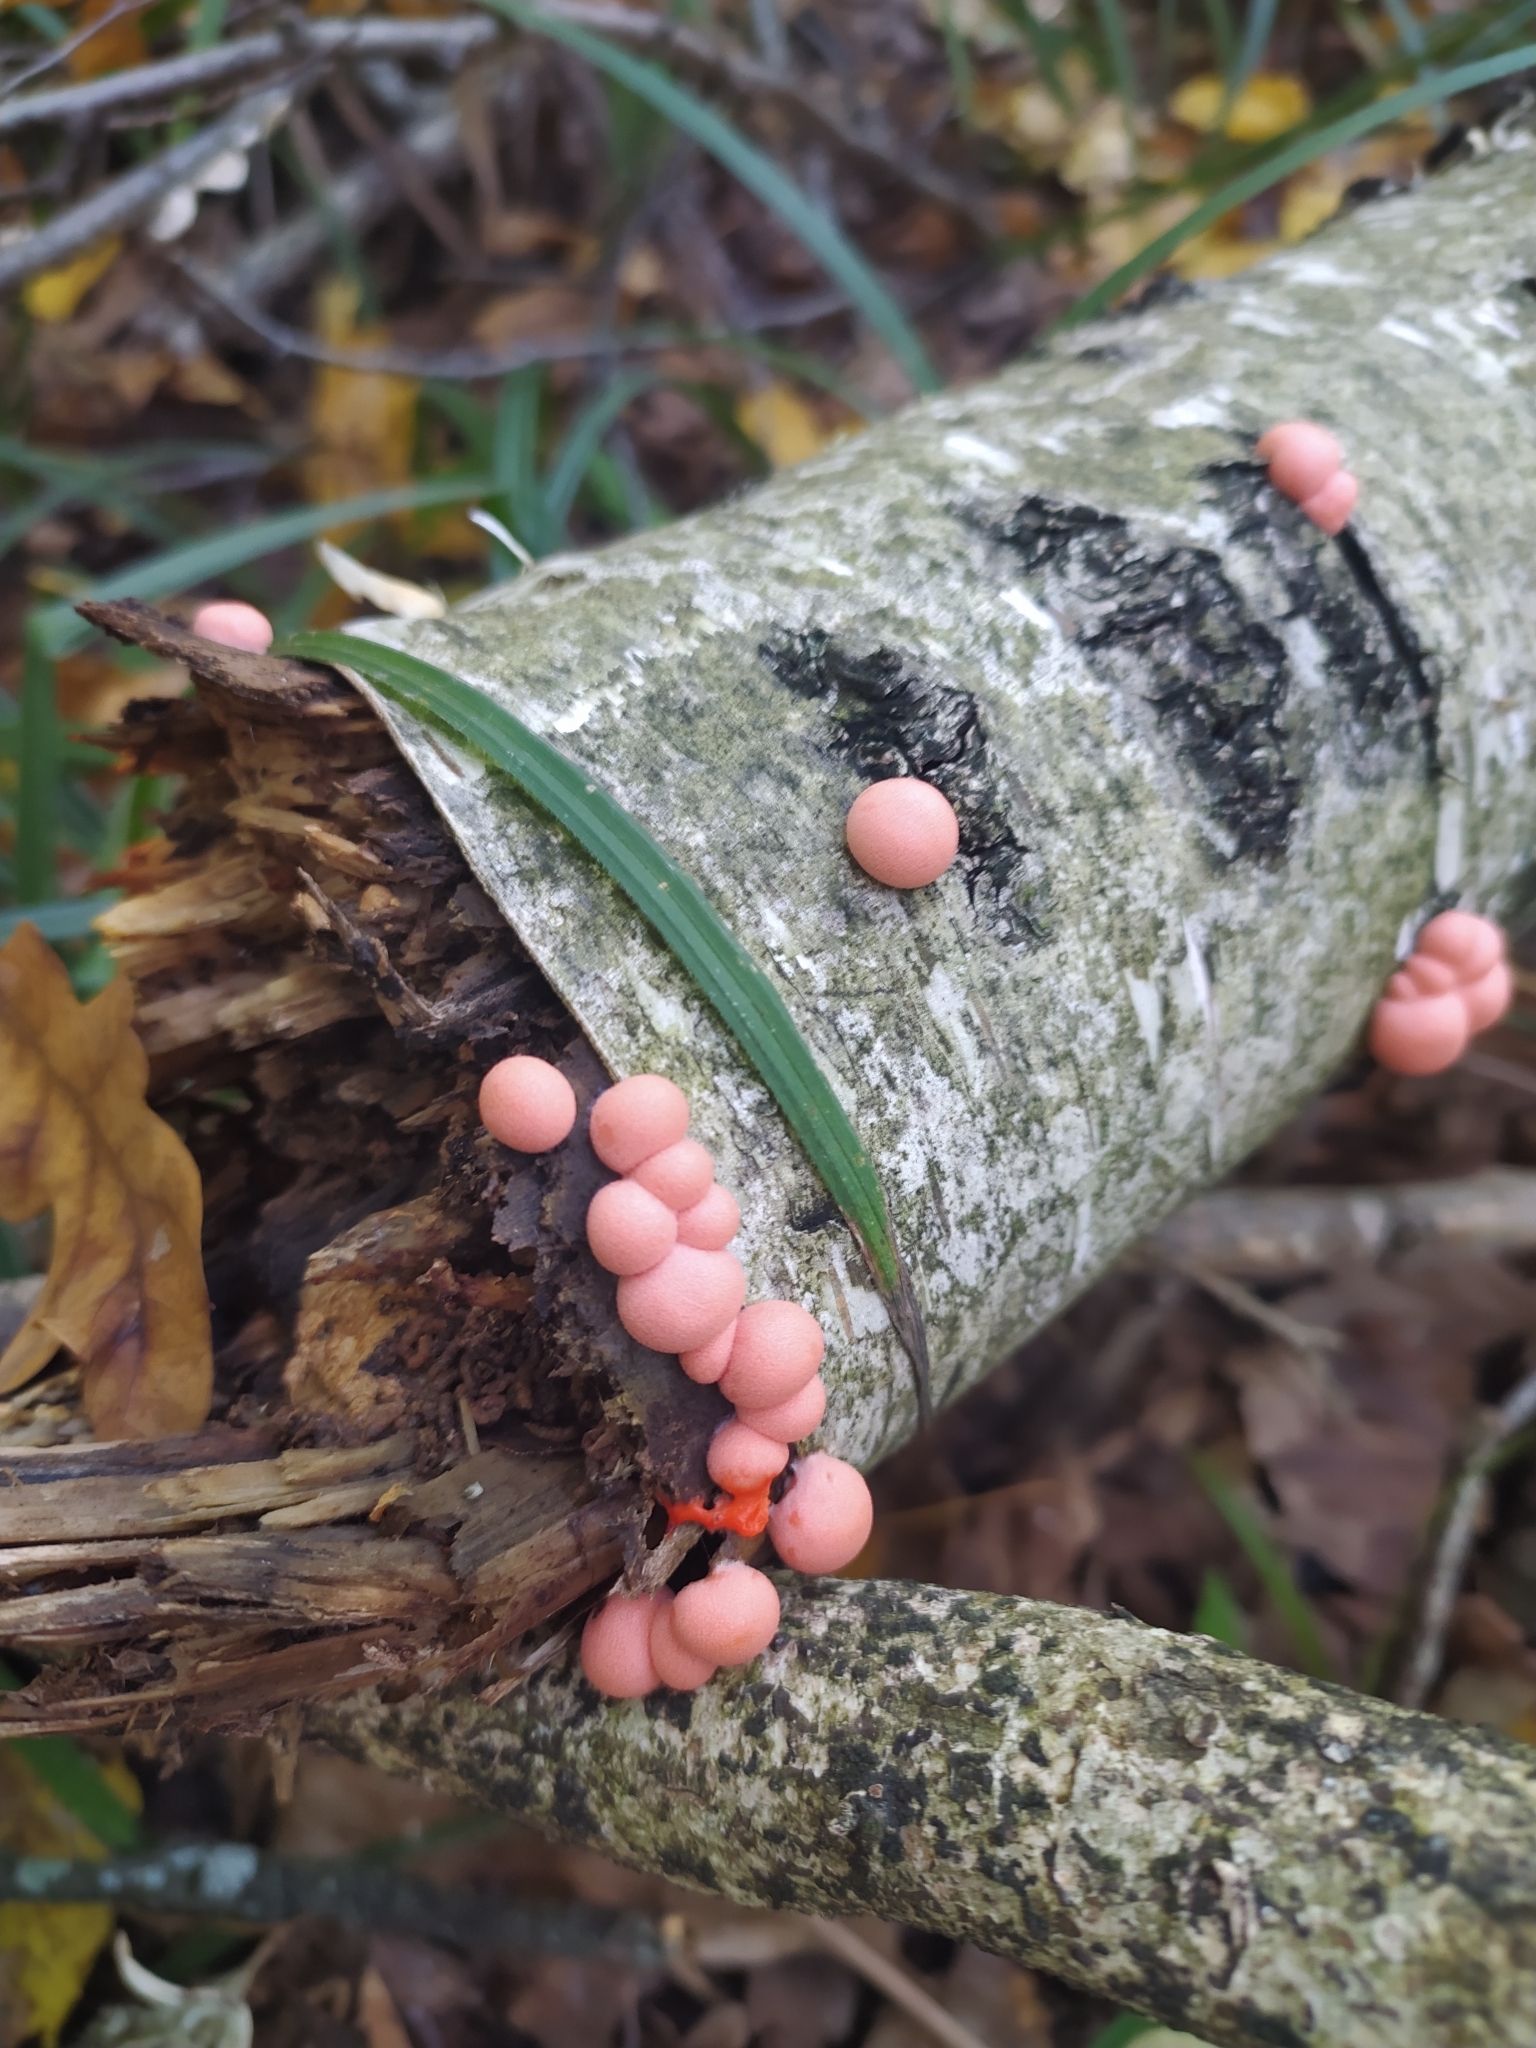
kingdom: Protozoa
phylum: Mycetozoa
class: Myxomycetes
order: Cribrariales
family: Tubiferaceae
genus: Lycogala
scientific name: Lycogala epidendrum
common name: Wolf's milk
